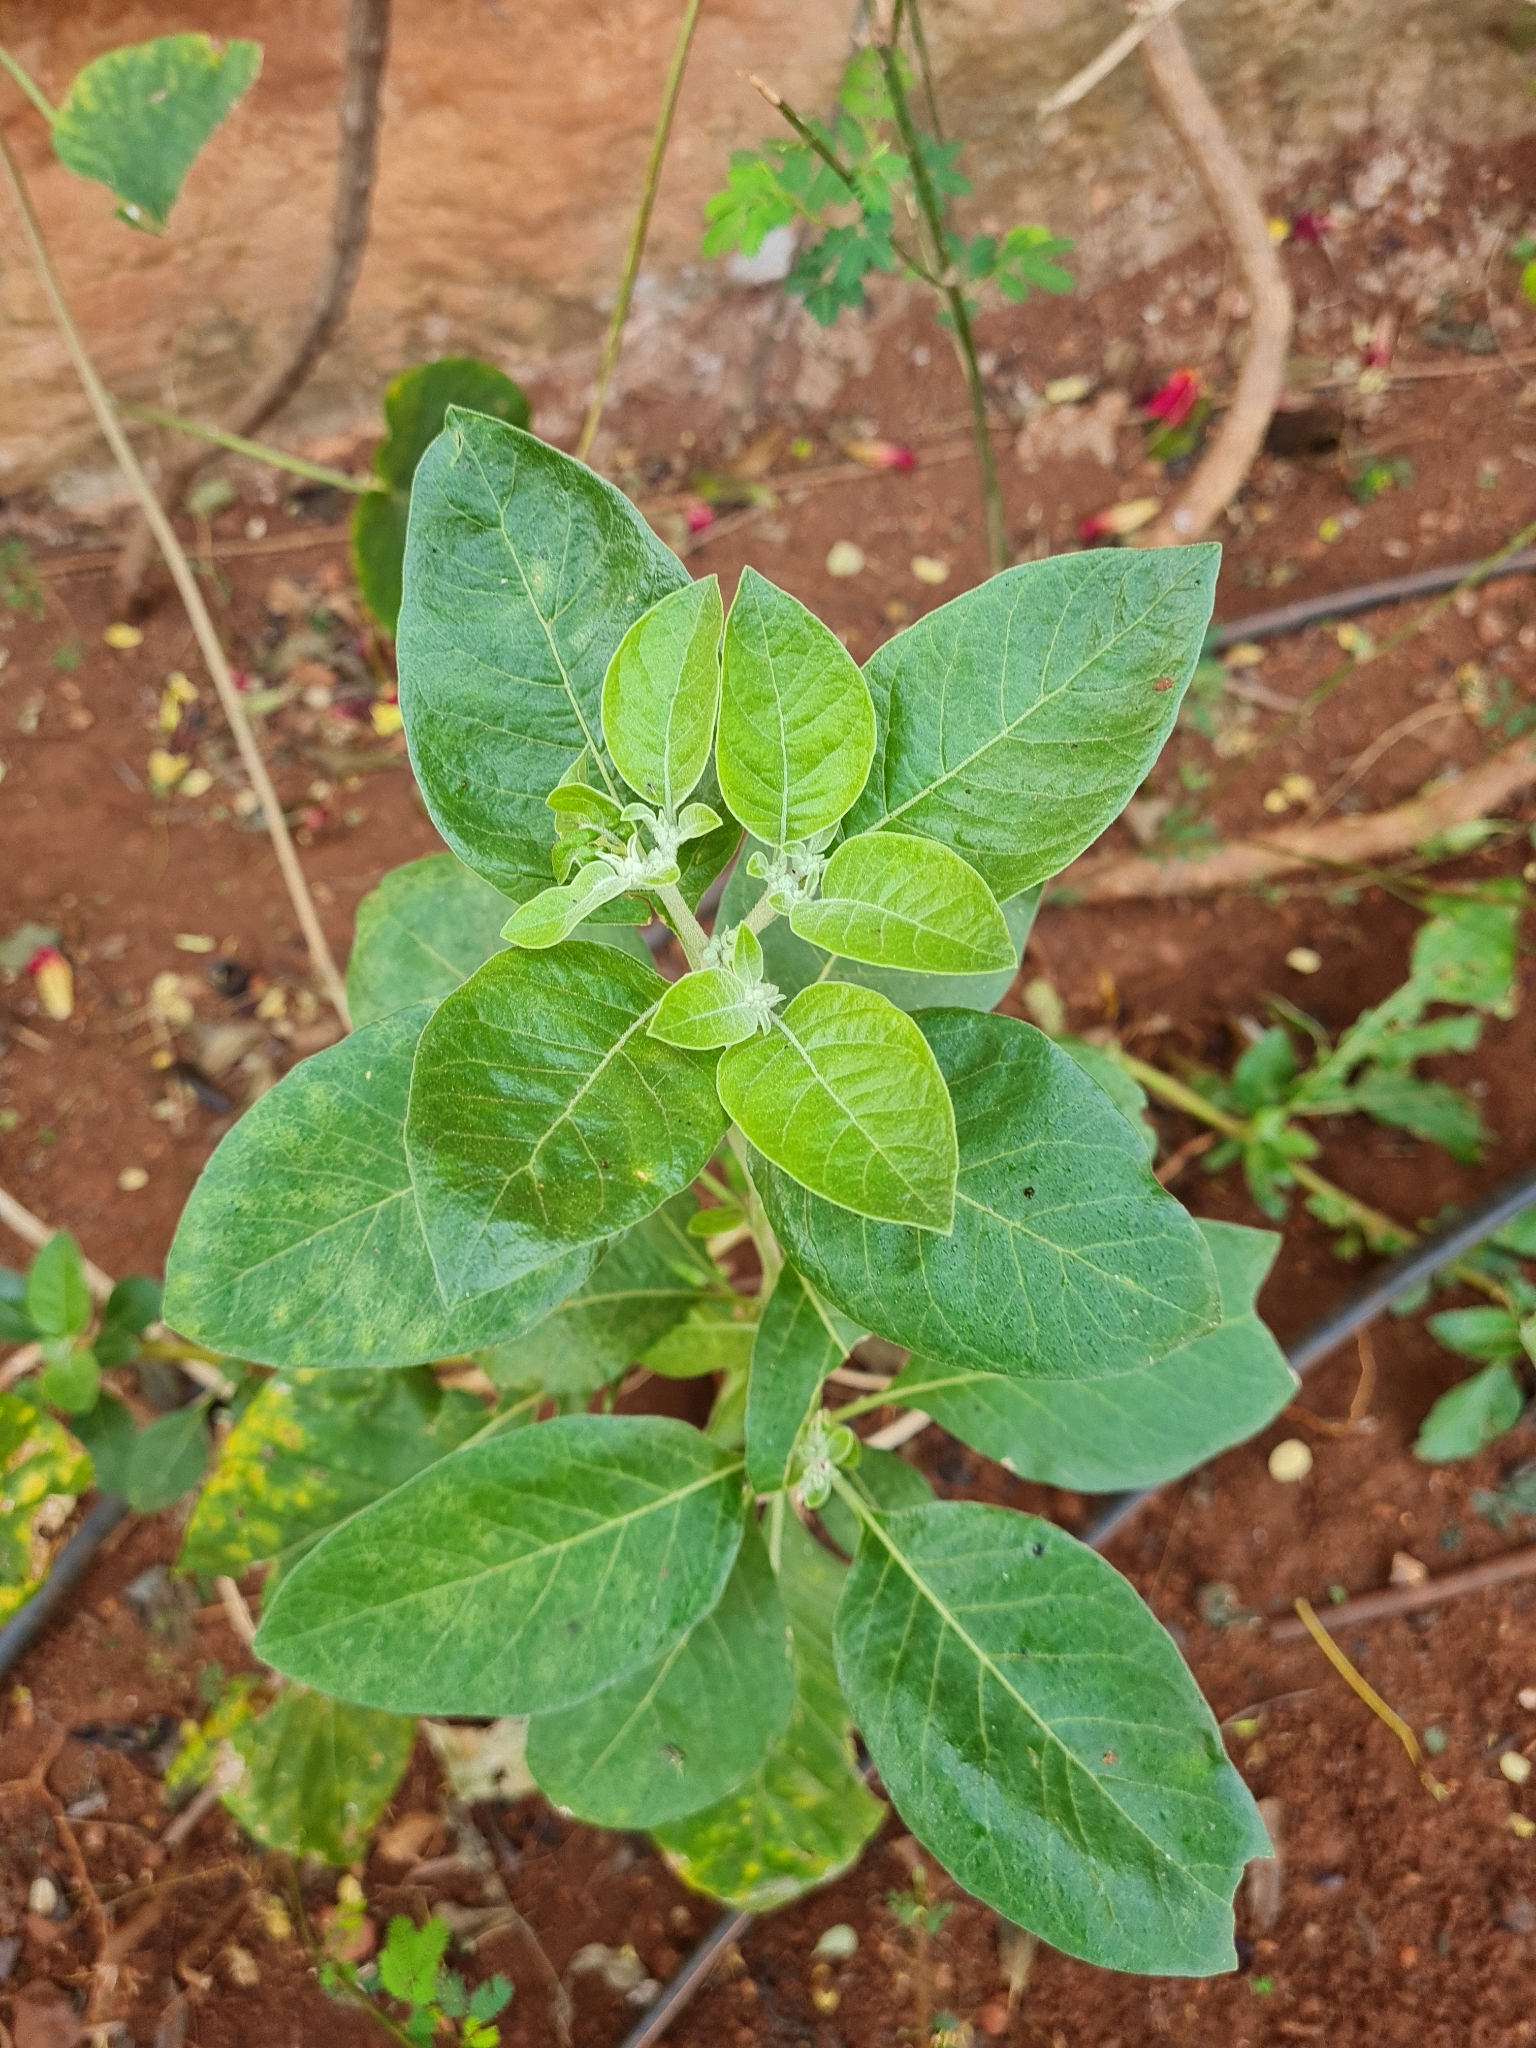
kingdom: Plantae
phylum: Tracheophyta
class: Magnoliopsida
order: Solanales
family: Solanaceae
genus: Withania
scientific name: Withania somnifera
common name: Winter-cherry
